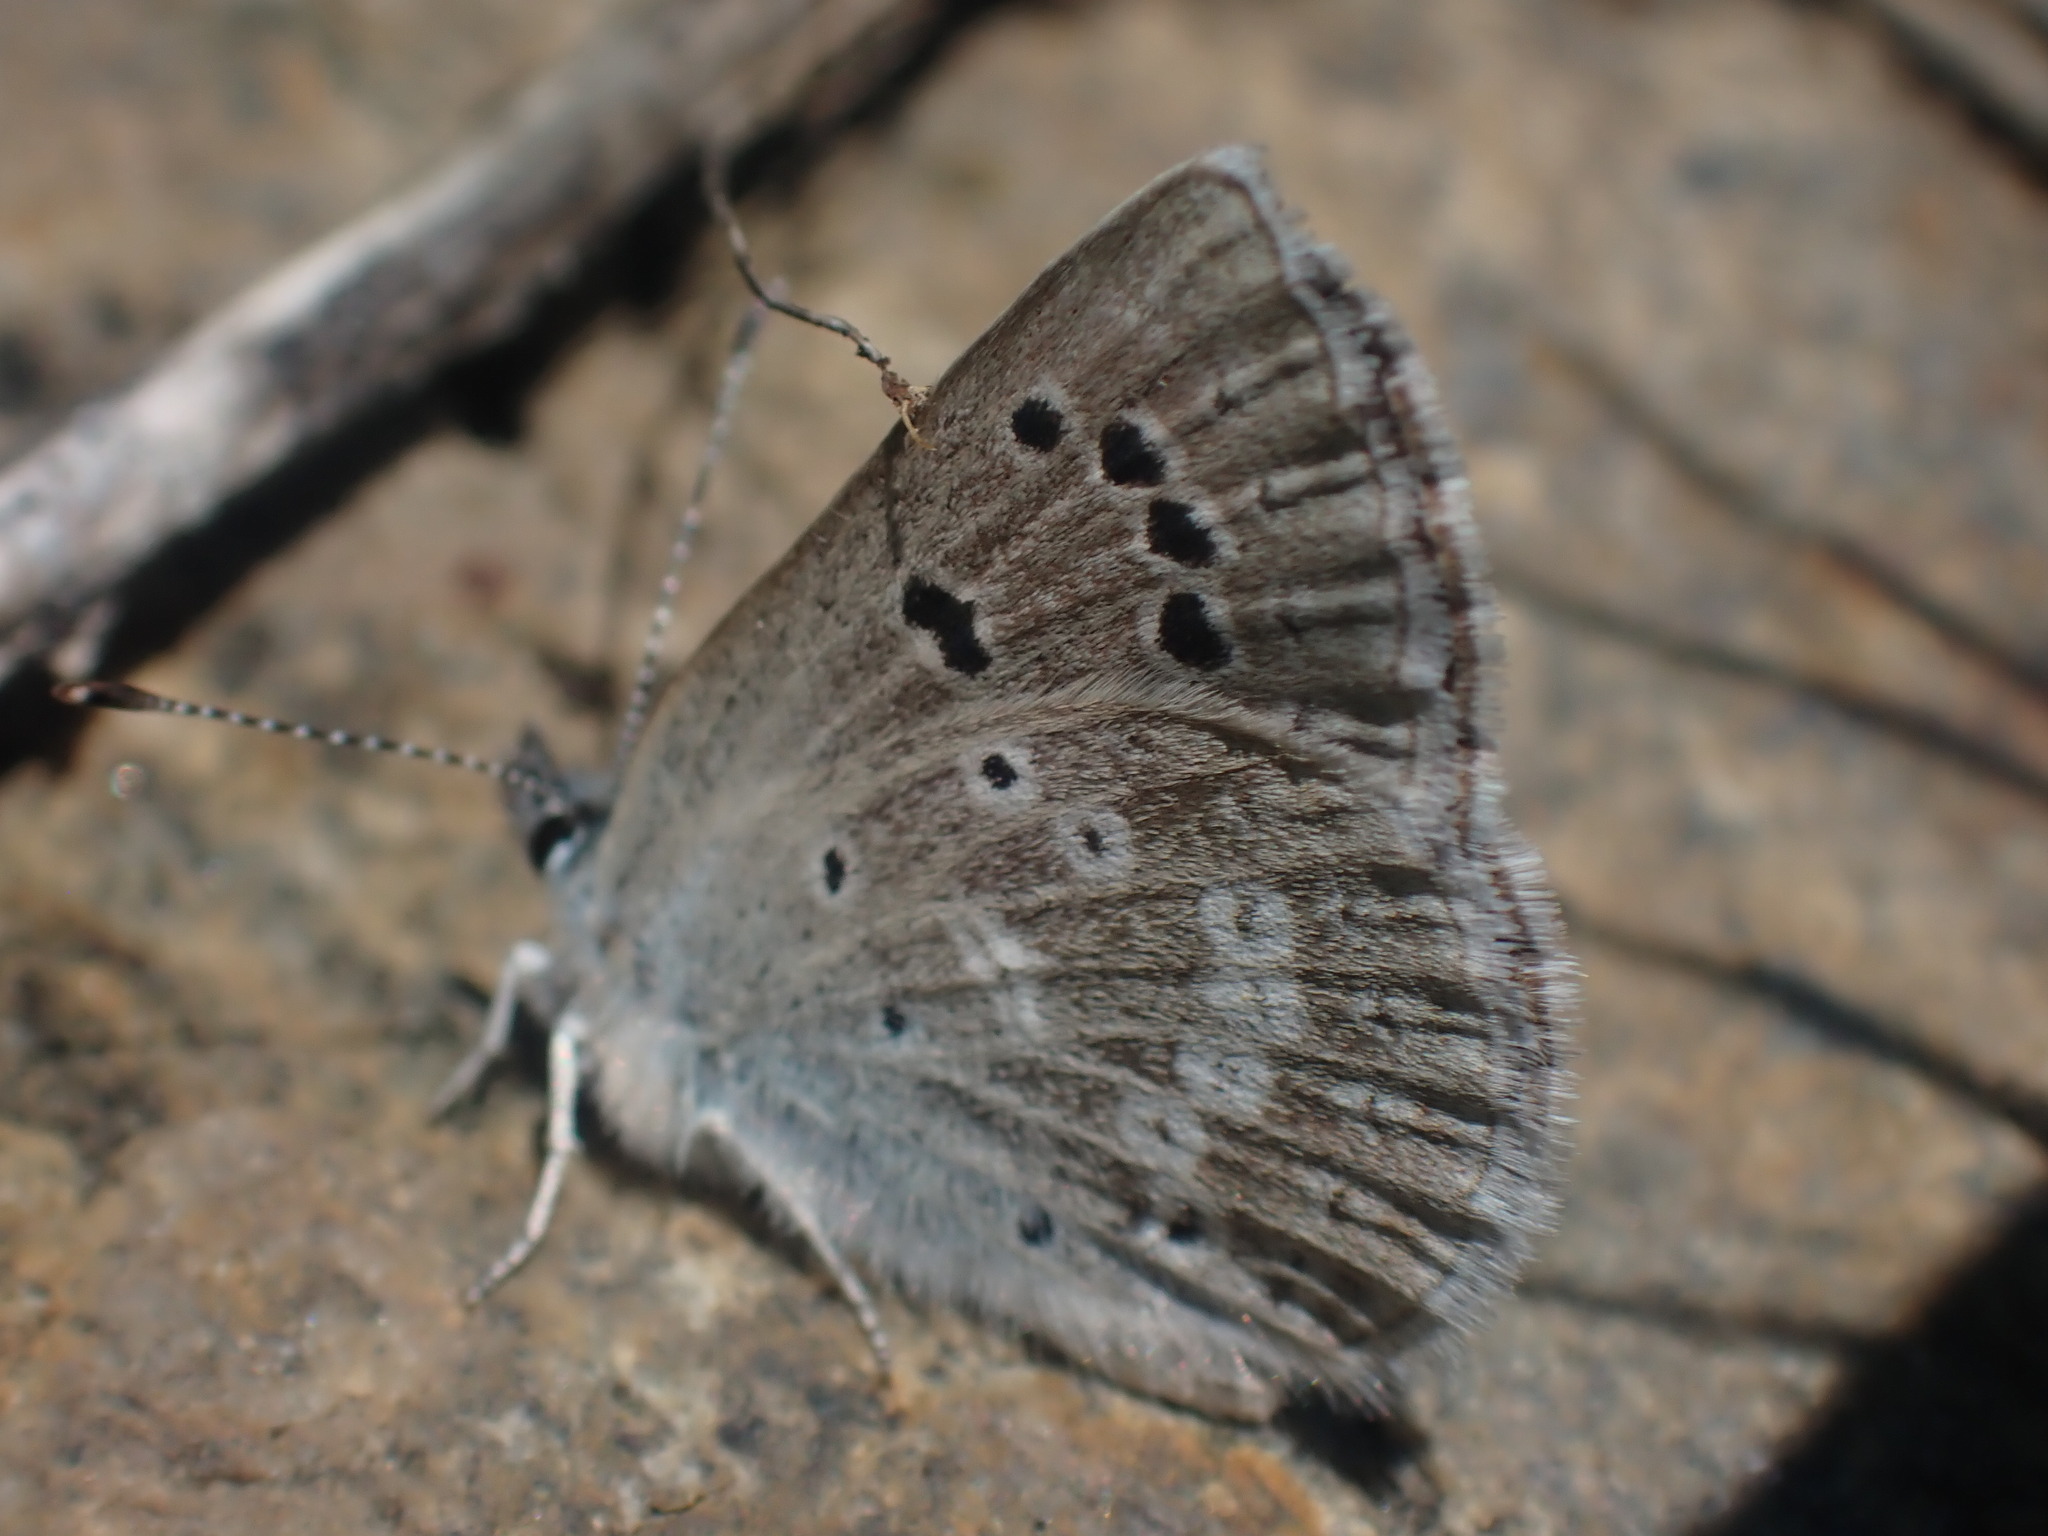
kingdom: Animalia
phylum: Arthropoda
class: Insecta
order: Lepidoptera
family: Lycaenidae
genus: Icaricia
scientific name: Icaricia icarioides
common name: Boisduval's blue
